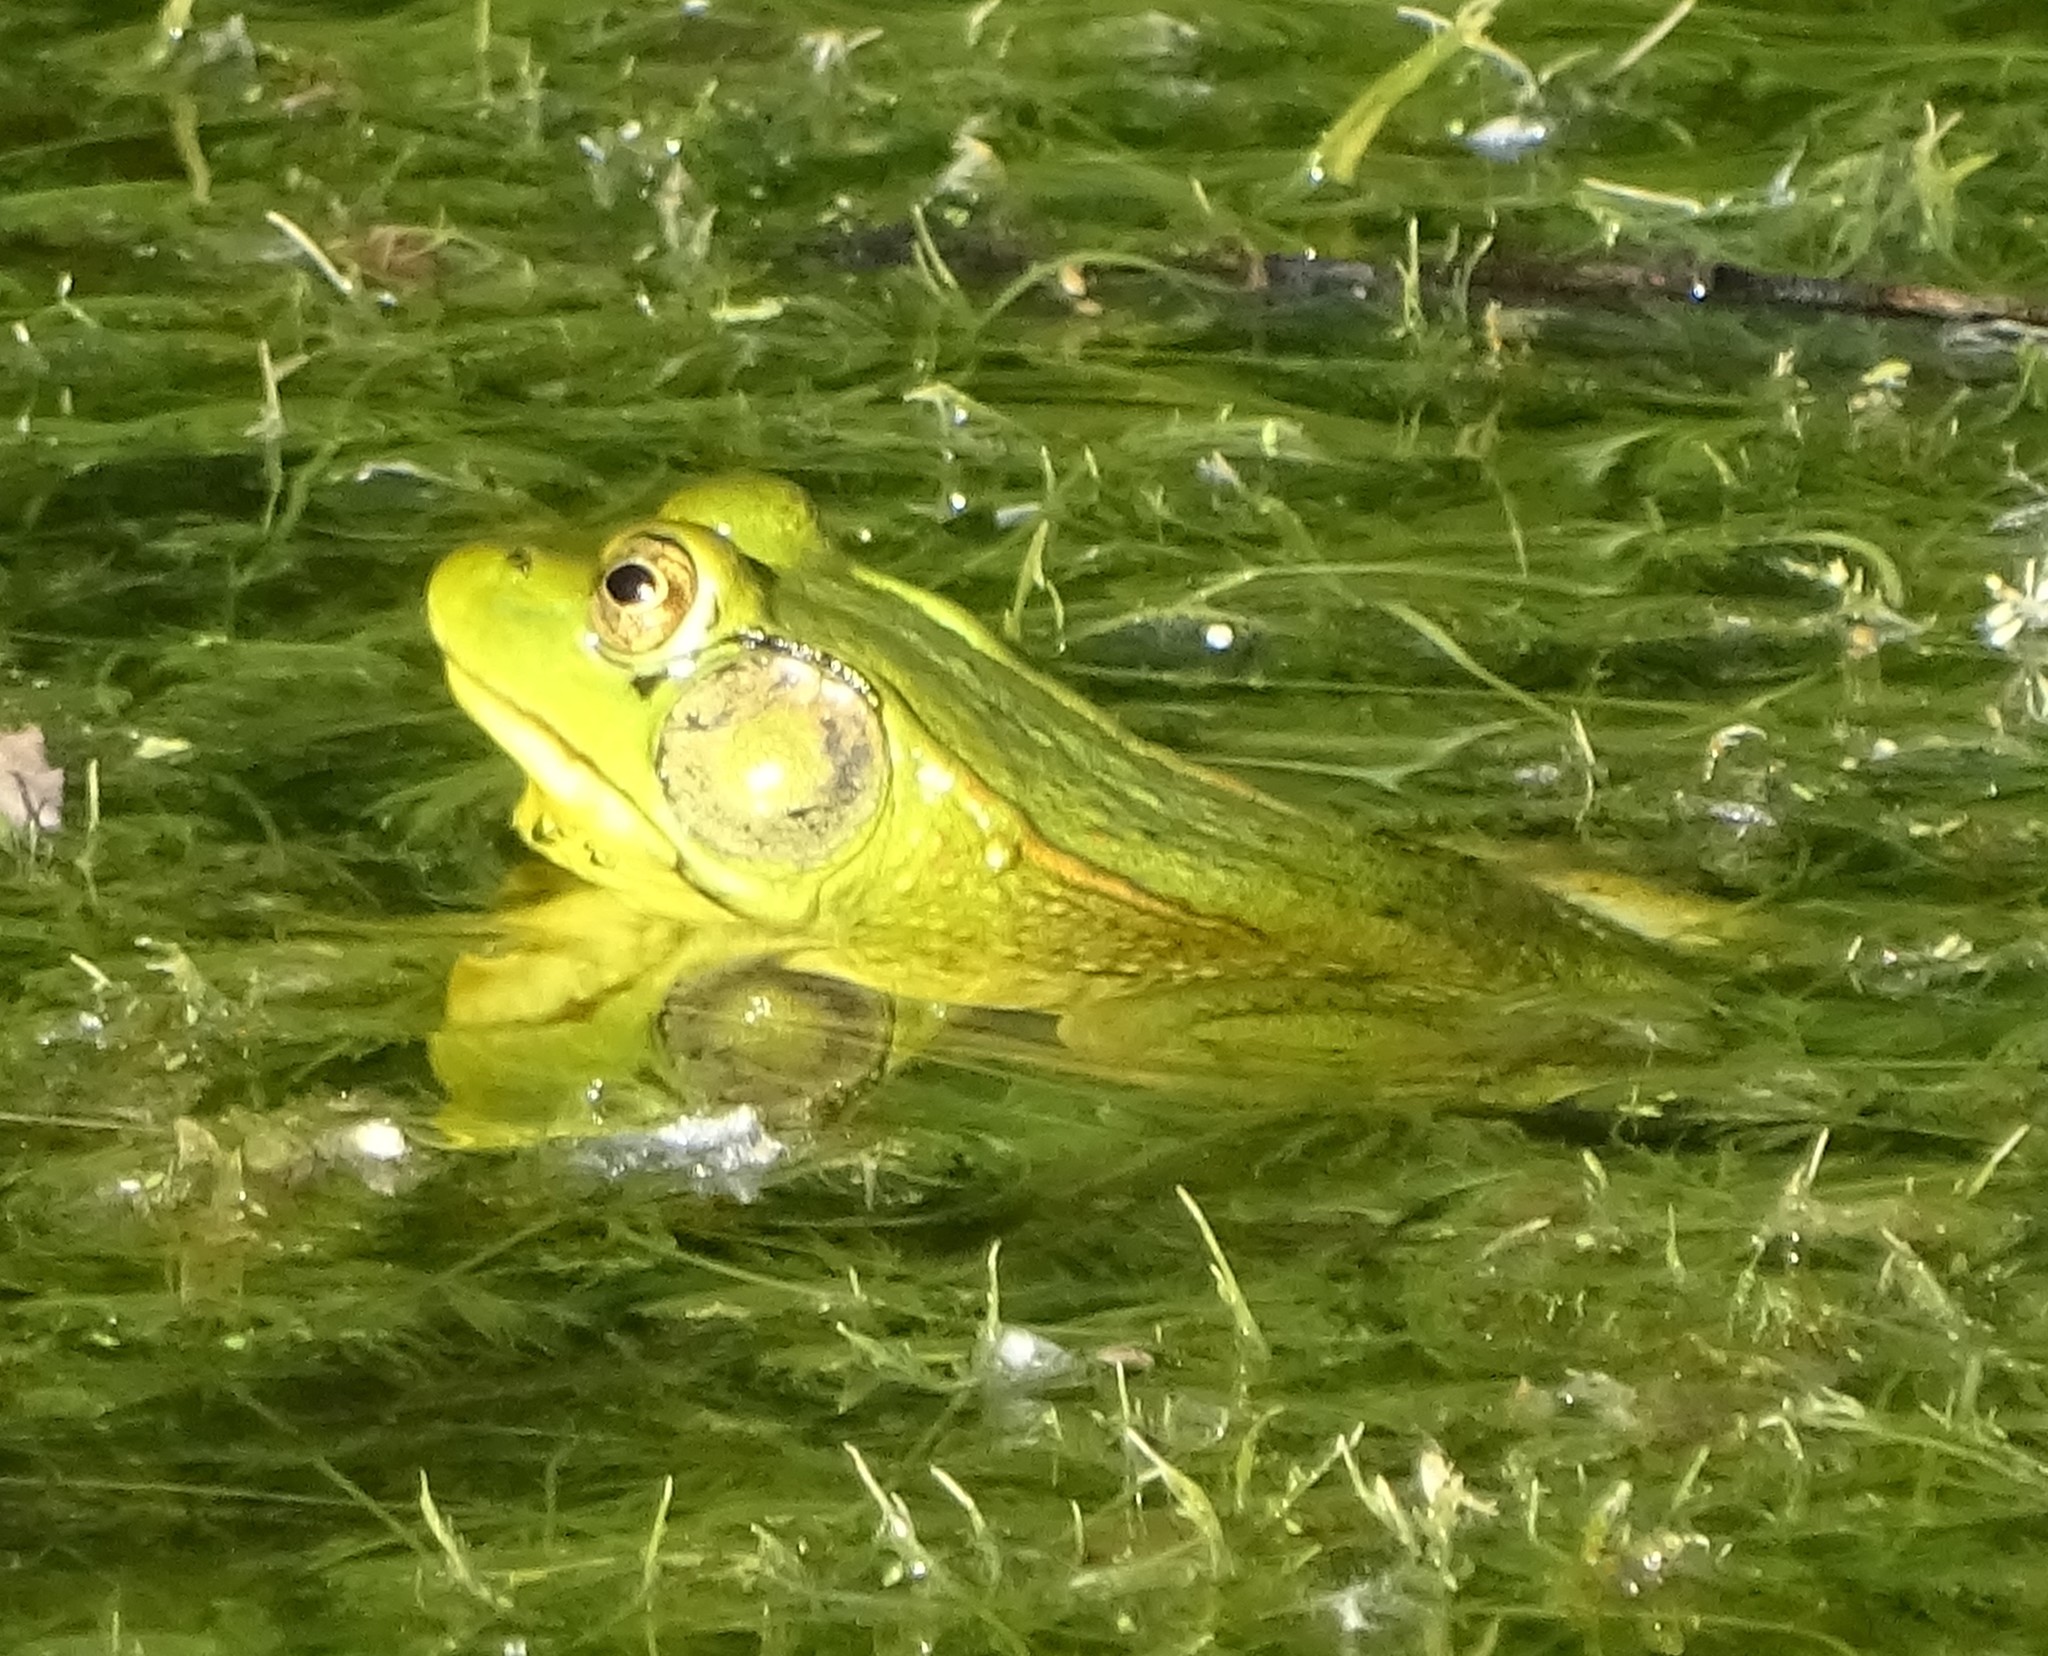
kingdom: Animalia
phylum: Chordata
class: Amphibia
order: Anura
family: Ranidae
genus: Lithobates
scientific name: Lithobates clamitans
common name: Green frog
